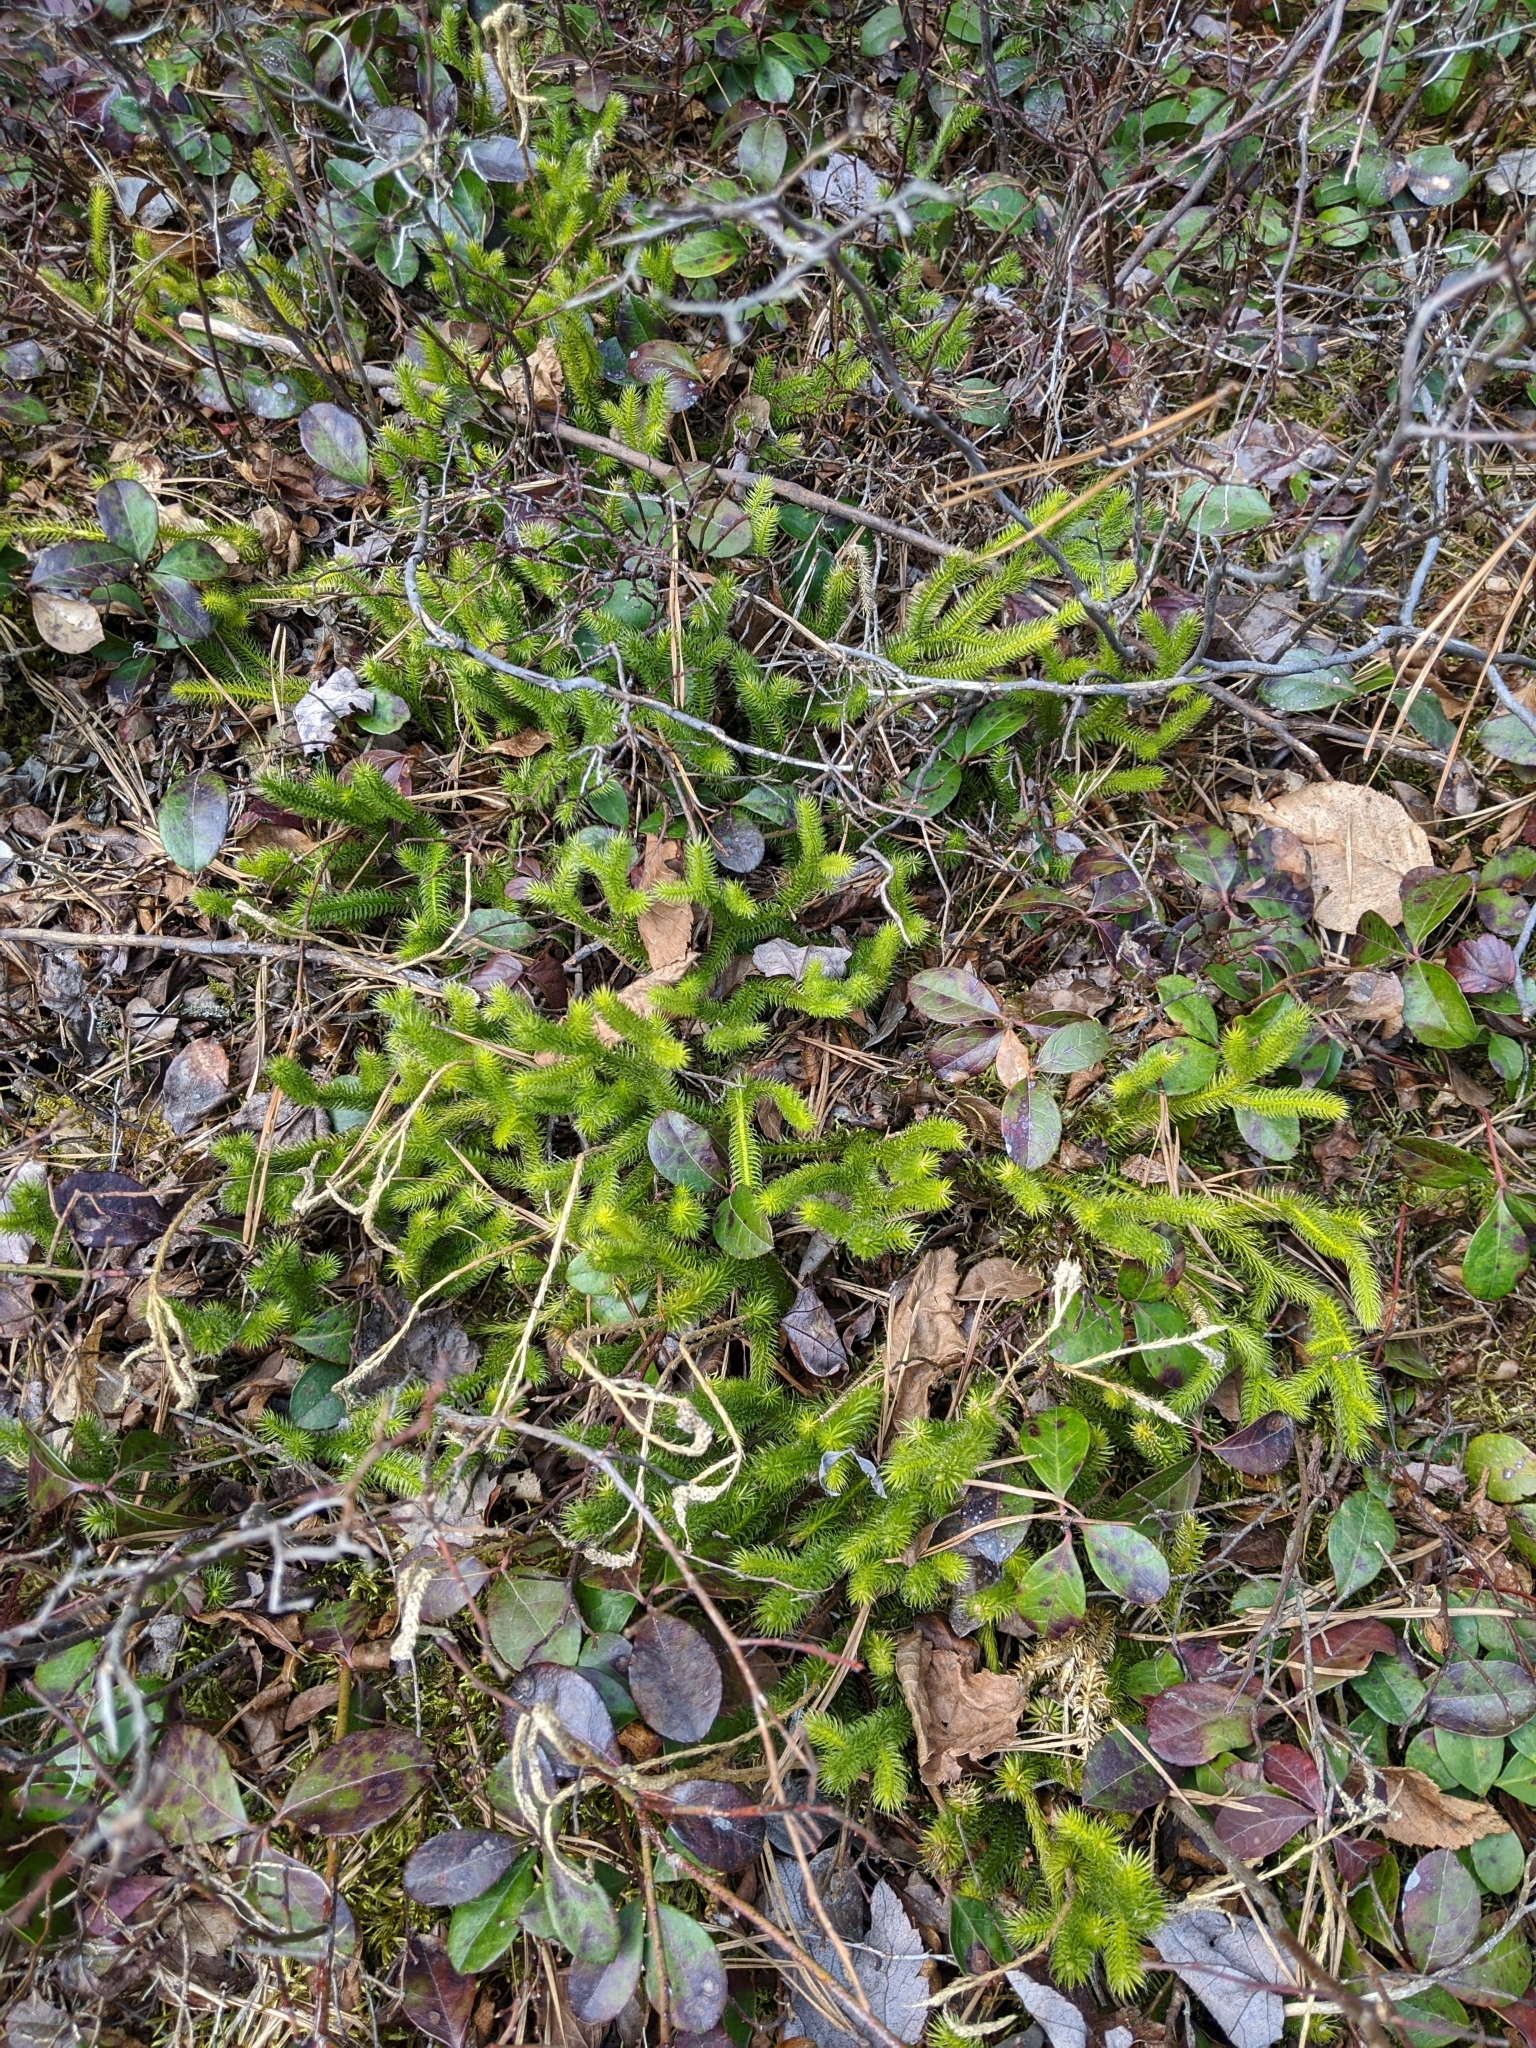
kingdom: Plantae
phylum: Tracheophyta
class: Lycopodiopsida
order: Lycopodiales
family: Lycopodiaceae
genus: Lycopodium
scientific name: Lycopodium clavatum
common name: Stag's-horn clubmoss
